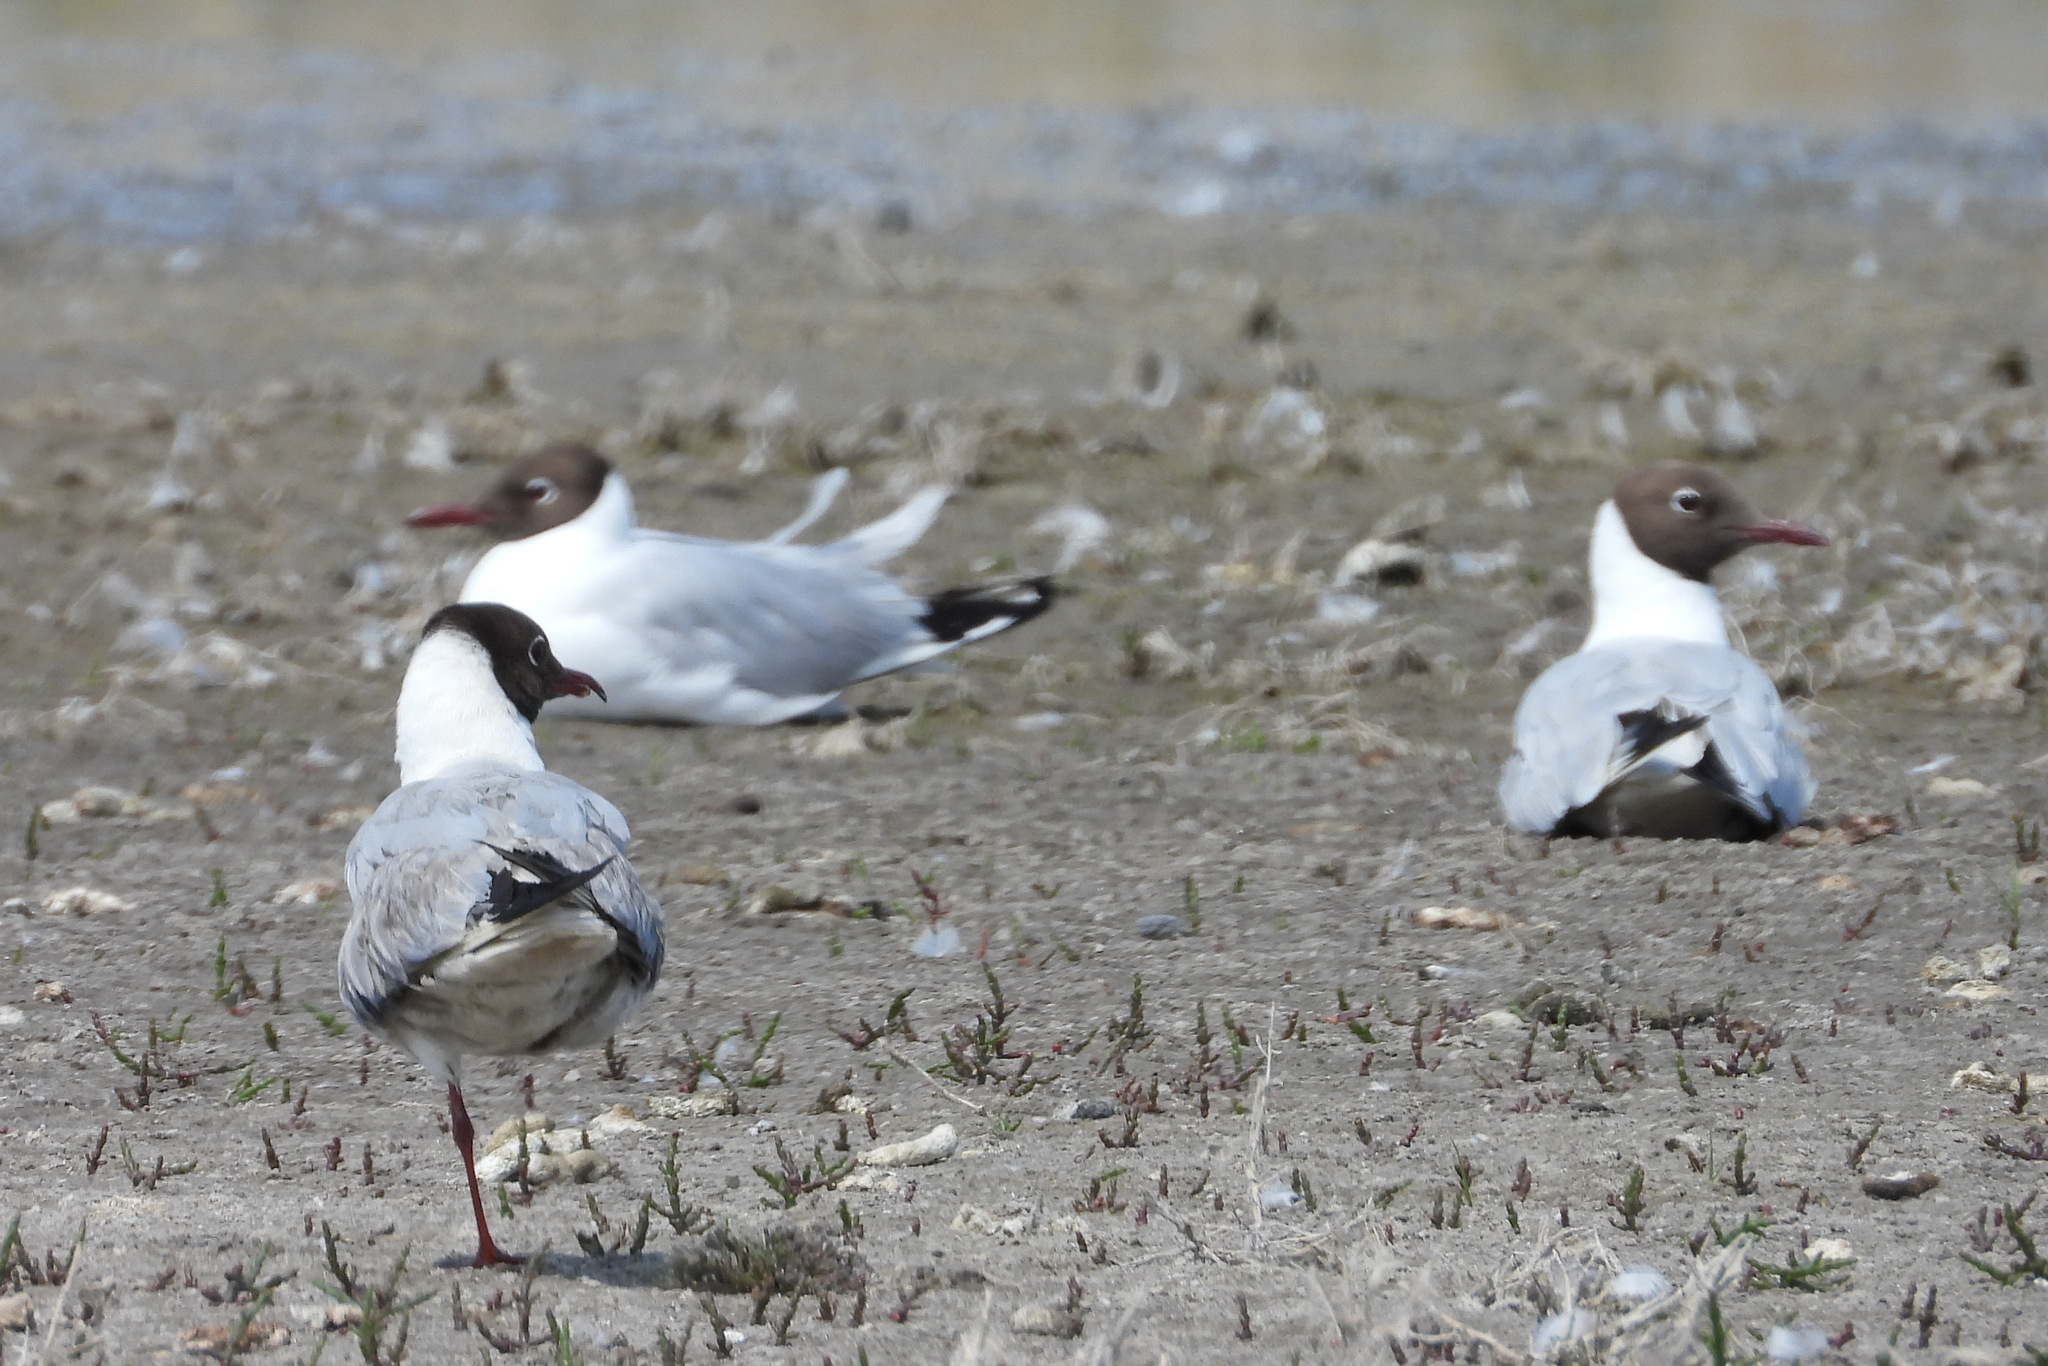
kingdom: Animalia
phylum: Chordata
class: Aves
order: Charadriiformes
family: Laridae
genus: Chroicocephalus
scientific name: Chroicocephalus ridibundus
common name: Black-headed gull
